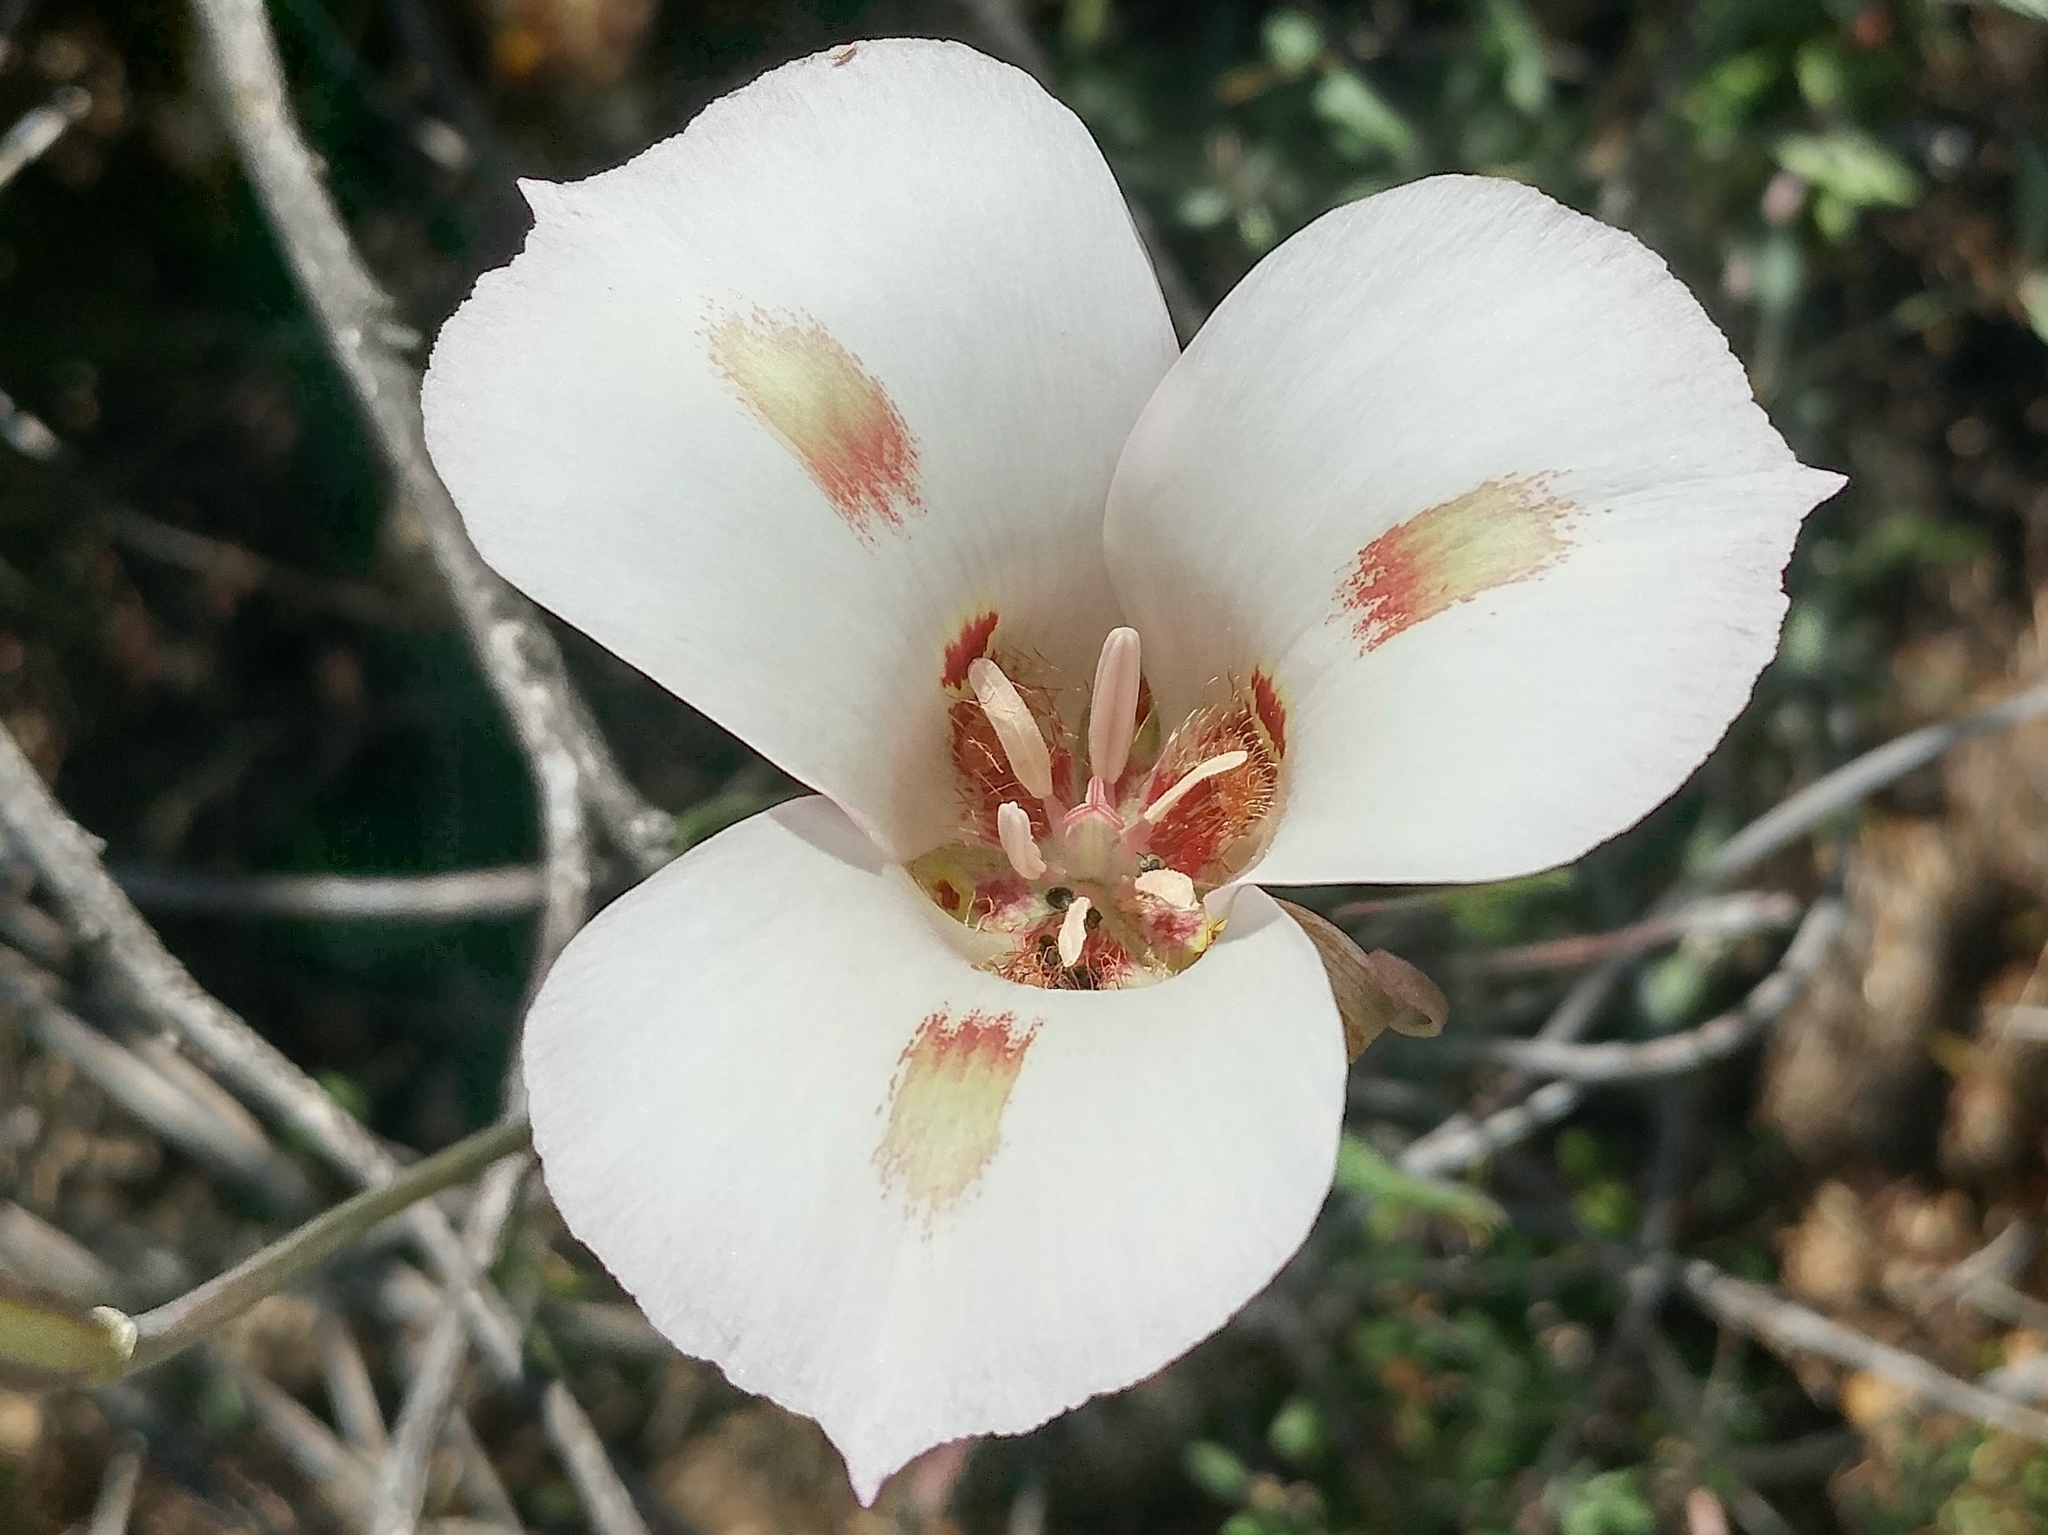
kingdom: Plantae
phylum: Tracheophyta
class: Liliopsida
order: Liliales
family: Liliaceae
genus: Calochortus
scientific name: Calochortus venustus
